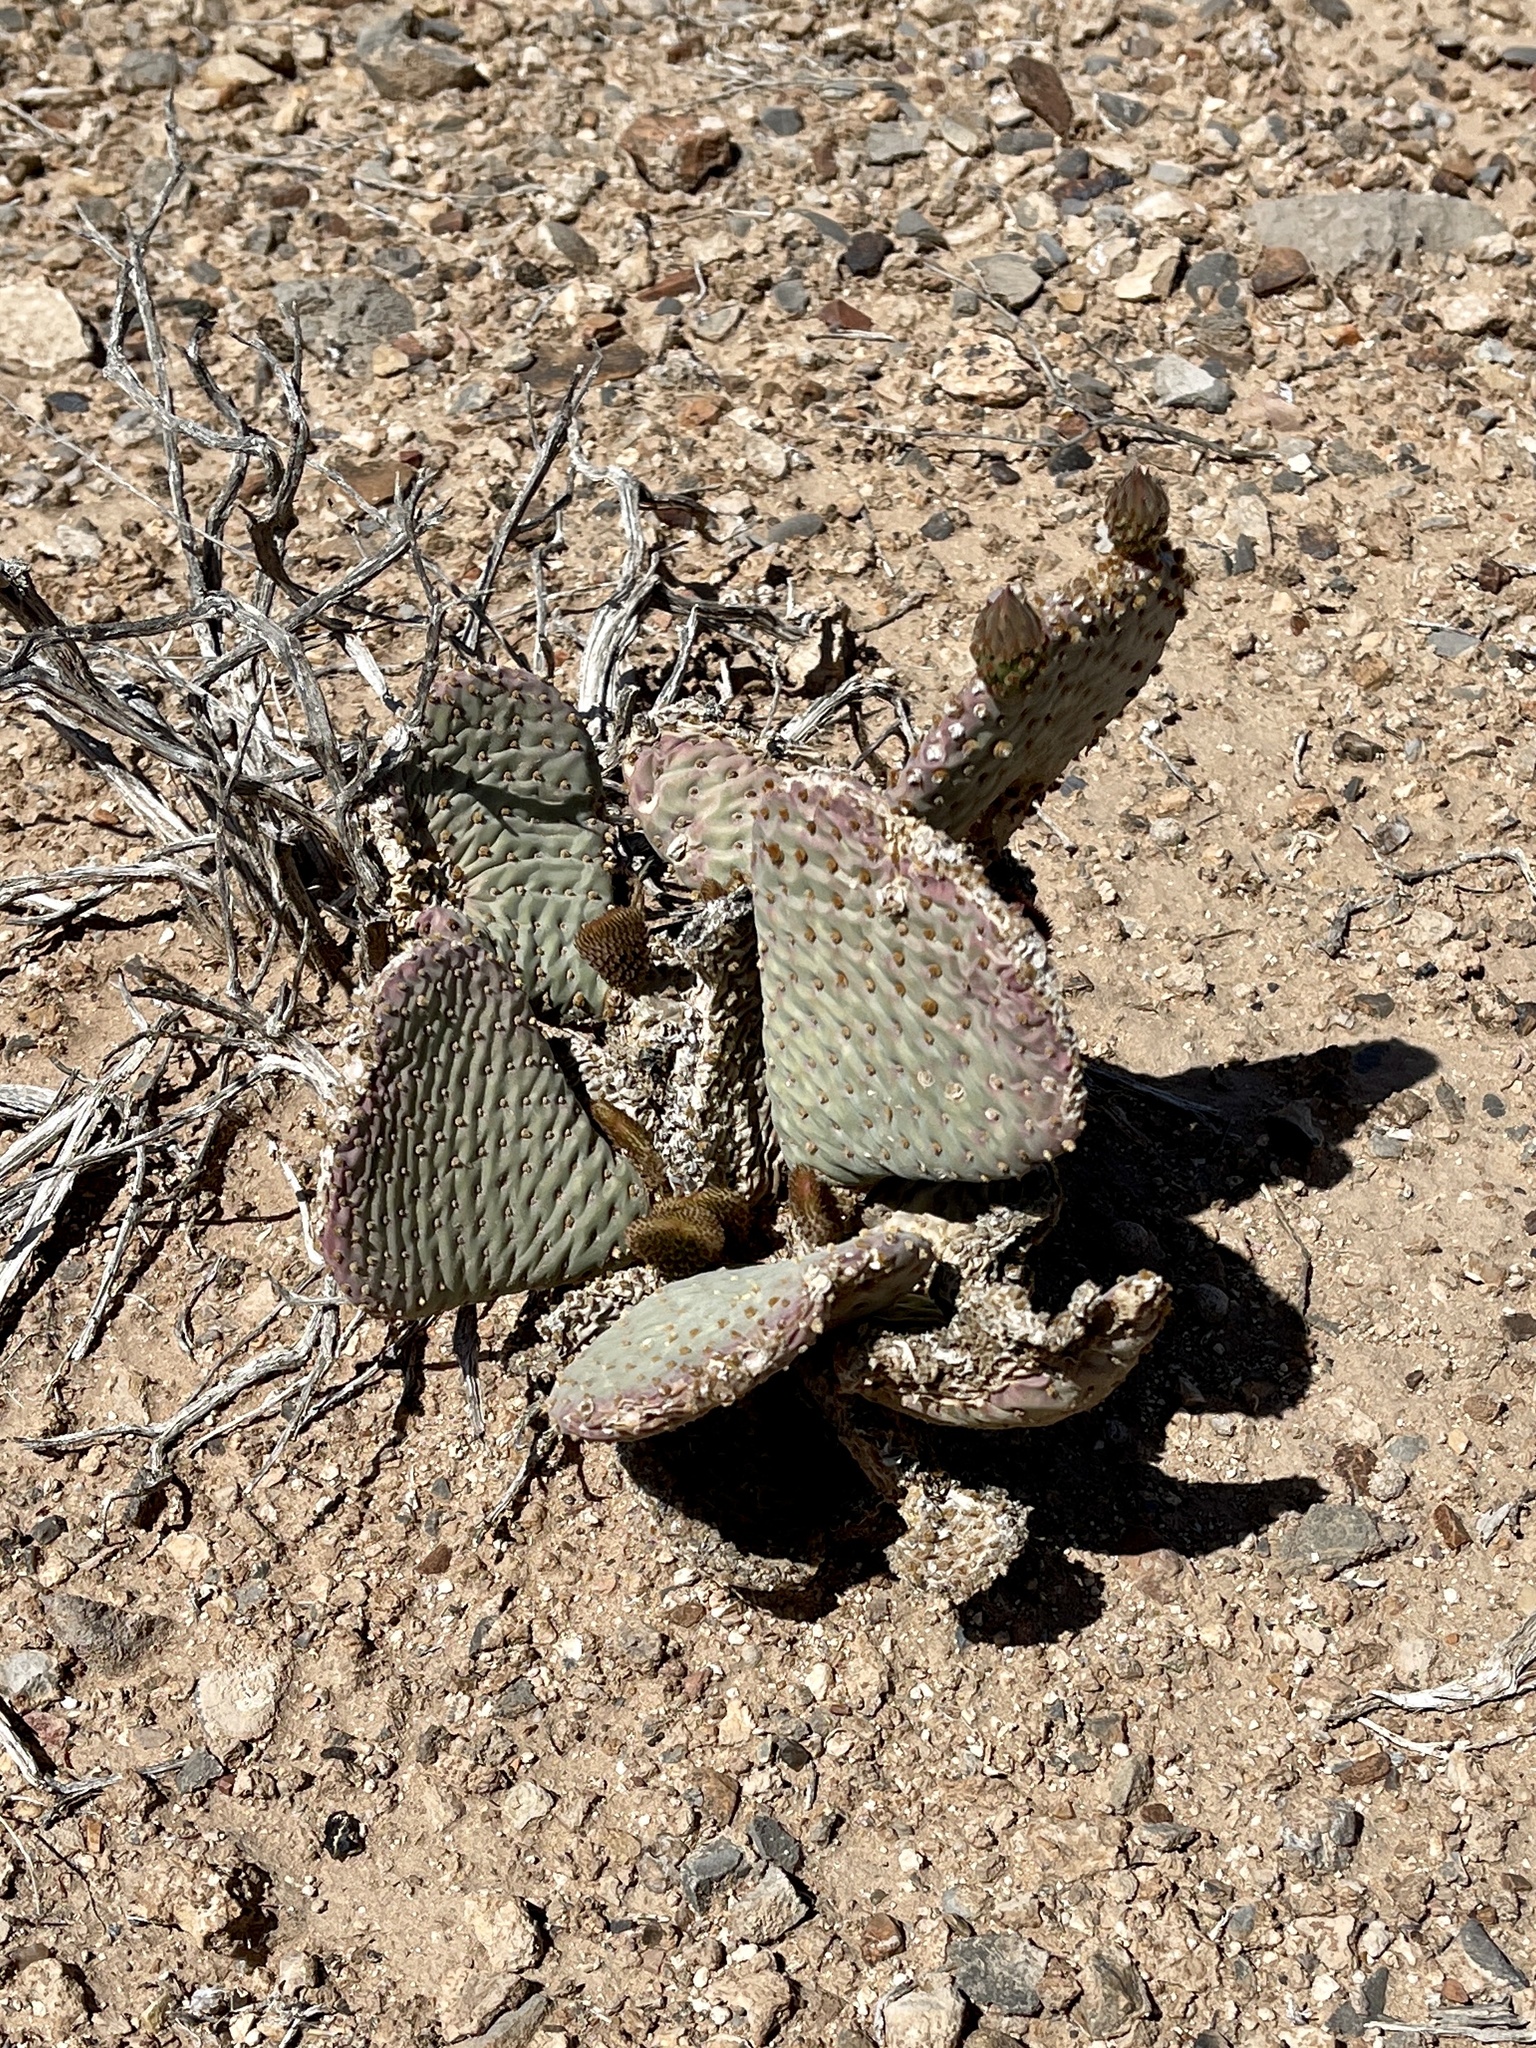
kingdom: Plantae
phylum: Tracheophyta
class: Magnoliopsida
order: Caryophyllales
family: Cactaceae
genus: Opuntia
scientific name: Opuntia basilaris
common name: Beavertail prickly-pear
